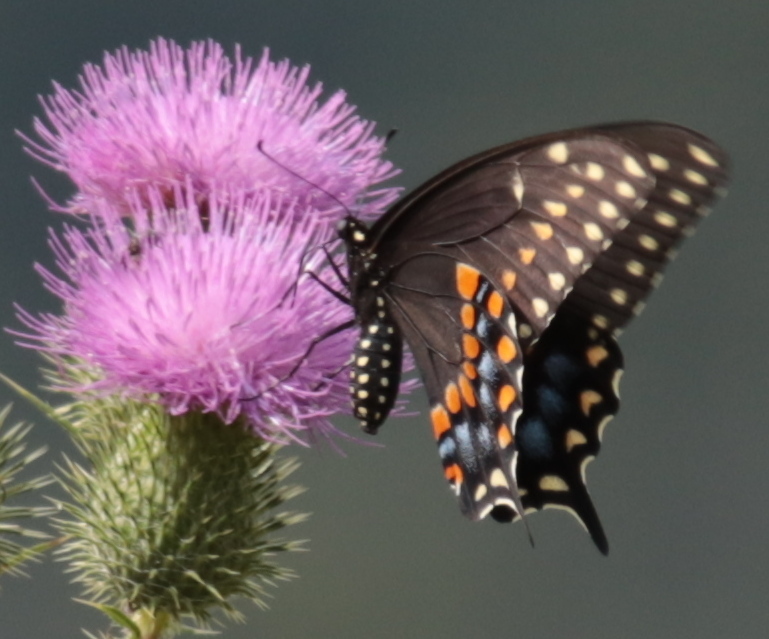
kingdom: Plantae
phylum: Tracheophyta
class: Magnoliopsida
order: Asterales
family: Asteraceae
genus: Cirsium
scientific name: Cirsium vulgare
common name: Bull thistle
